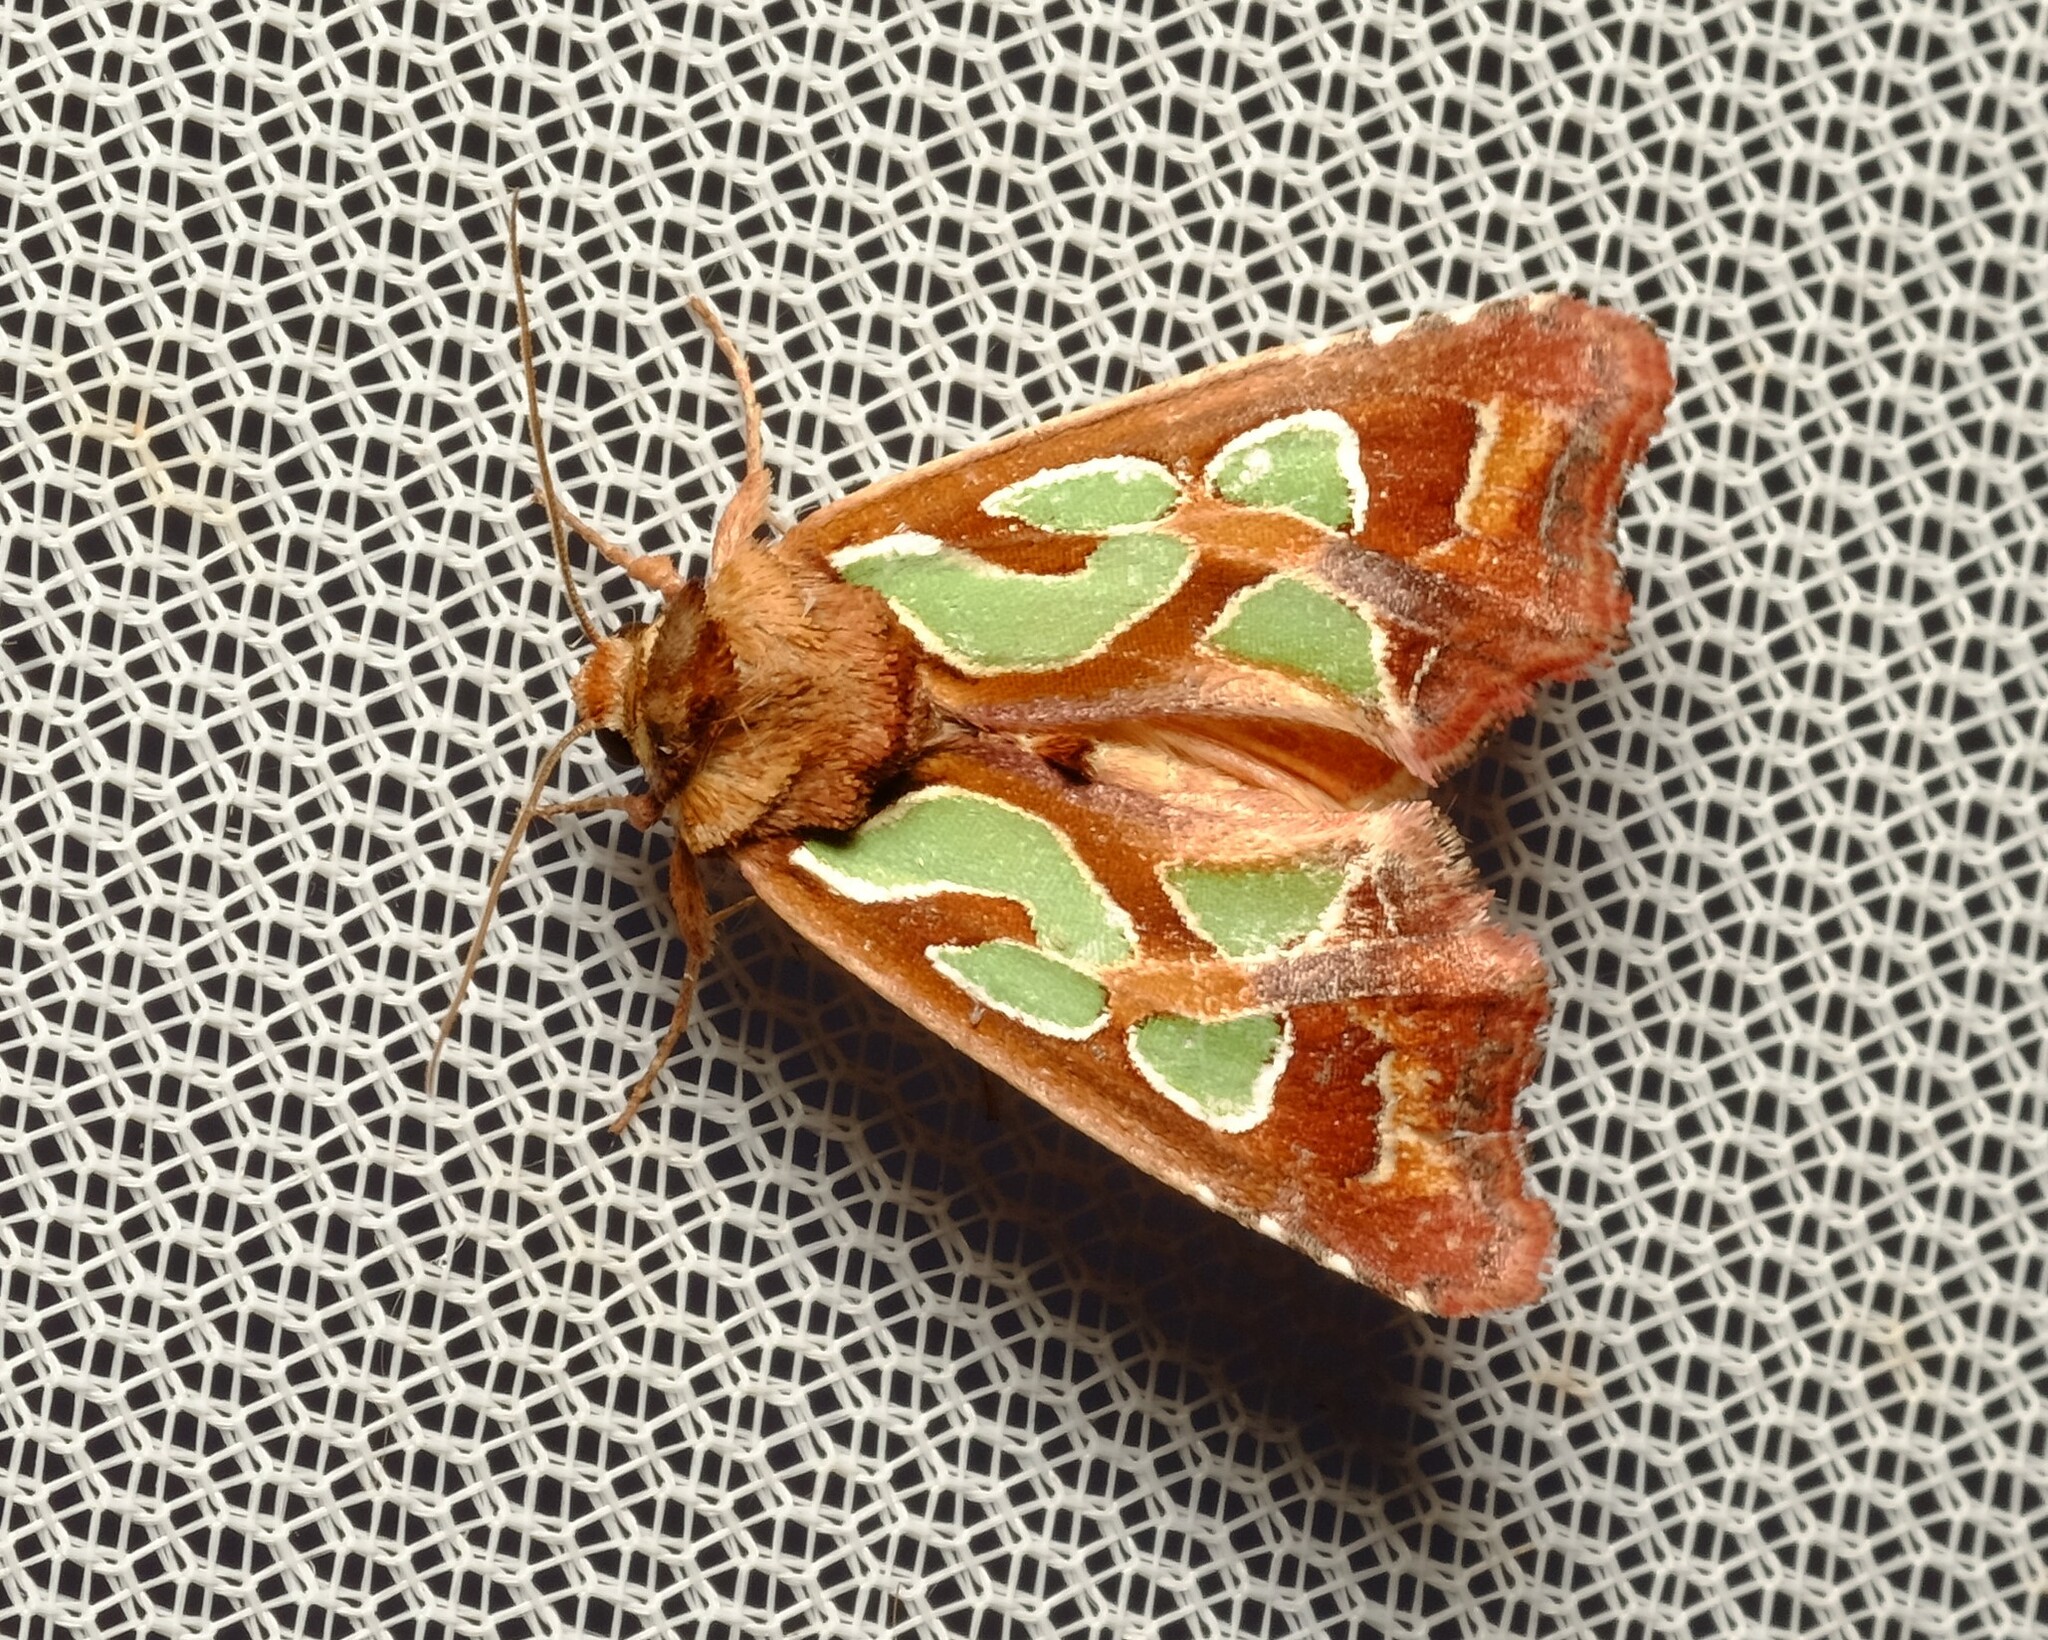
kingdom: Animalia
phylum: Arthropoda
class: Insecta
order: Lepidoptera
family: Noctuidae
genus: Cosmodes
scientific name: Cosmodes elegans
